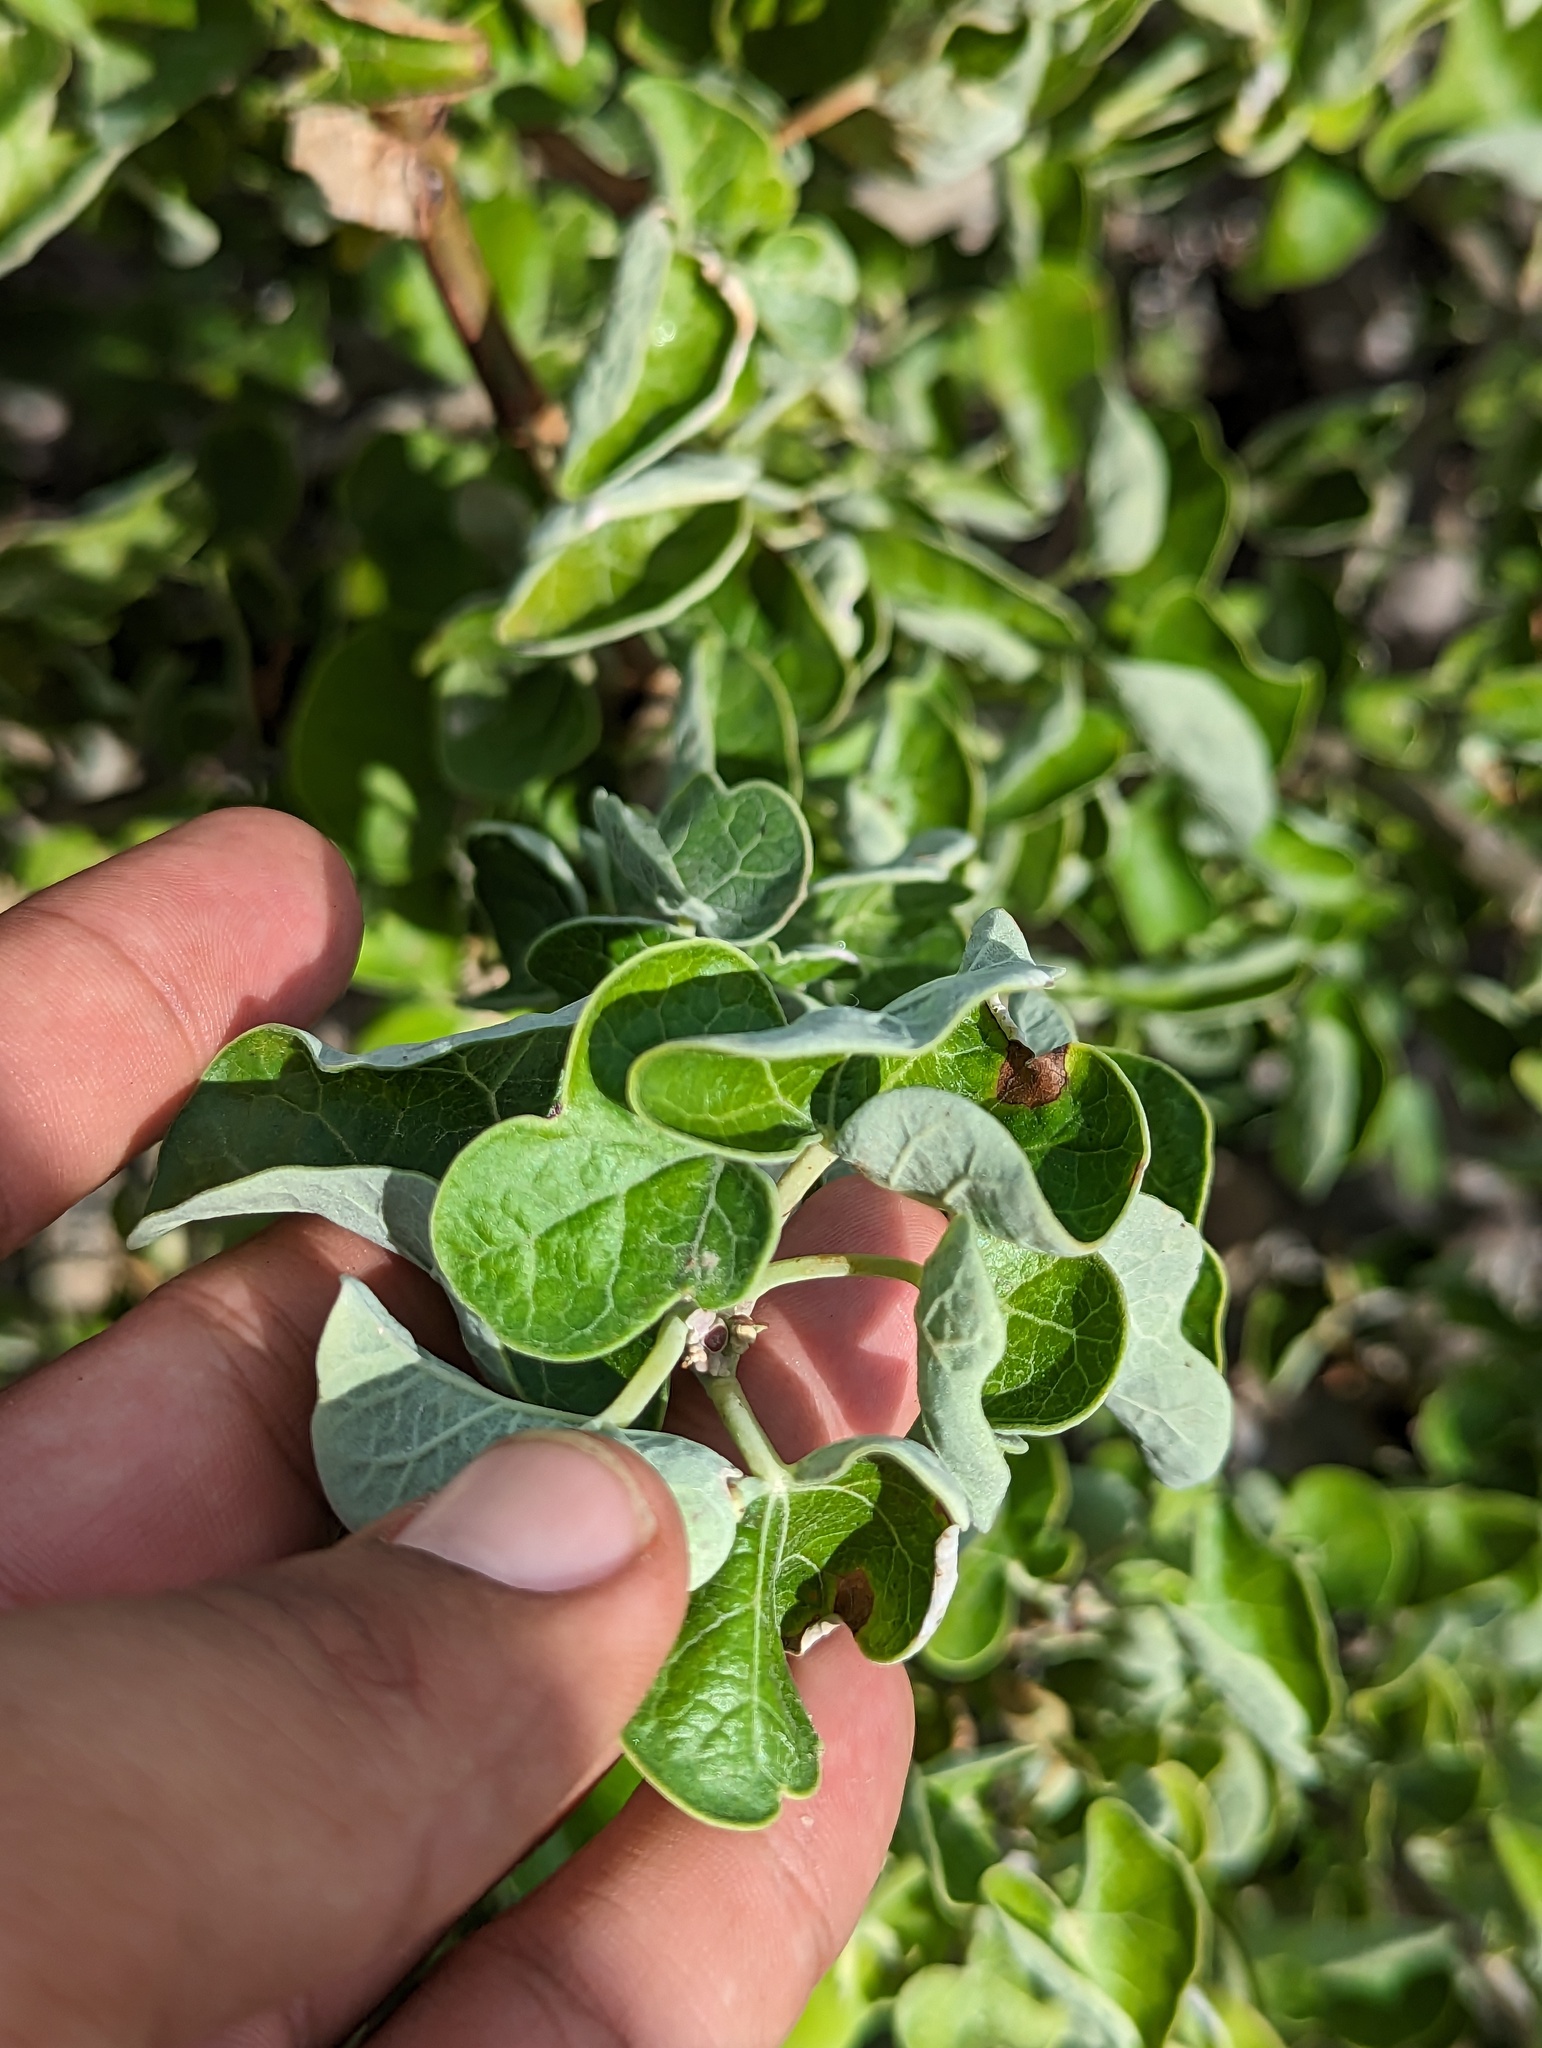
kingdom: Plantae
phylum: Tracheophyta
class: Magnoliopsida
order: Malpighiales
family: Euphorbiaceae
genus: Jatropha
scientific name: Jatropha cinerea
